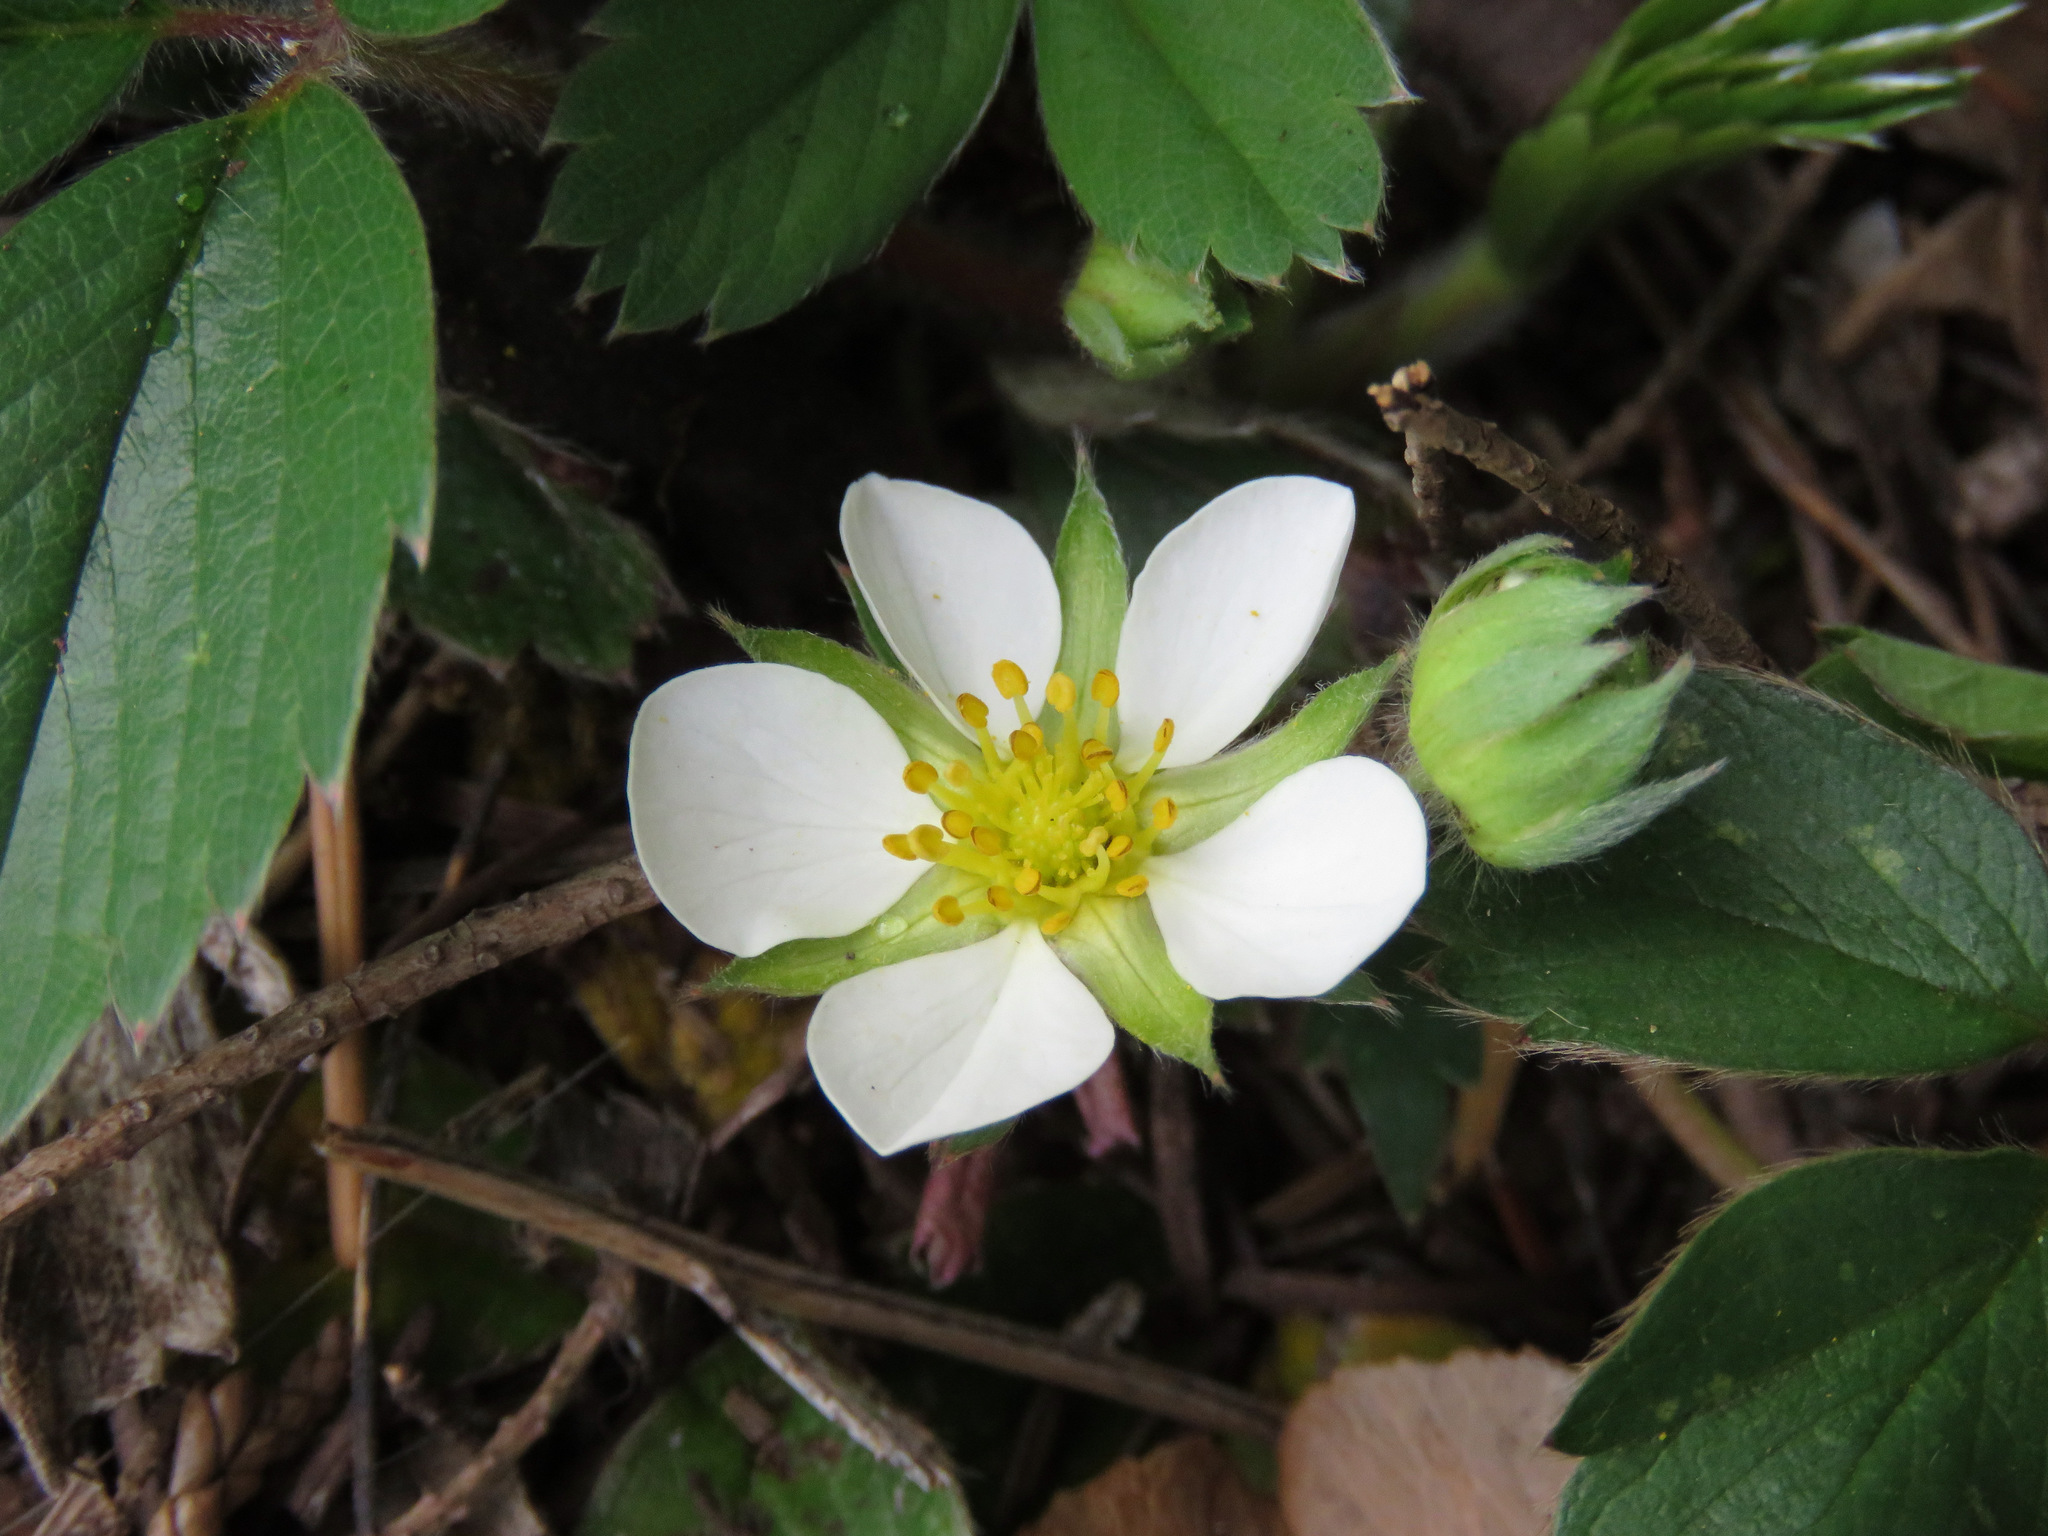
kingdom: Plantae
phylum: Tracheophyta
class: Magnoliopsida
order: Rosales
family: Rosaceae
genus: Fragaria
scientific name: Fragaria virginiana
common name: Thickleaved wild strawberry
